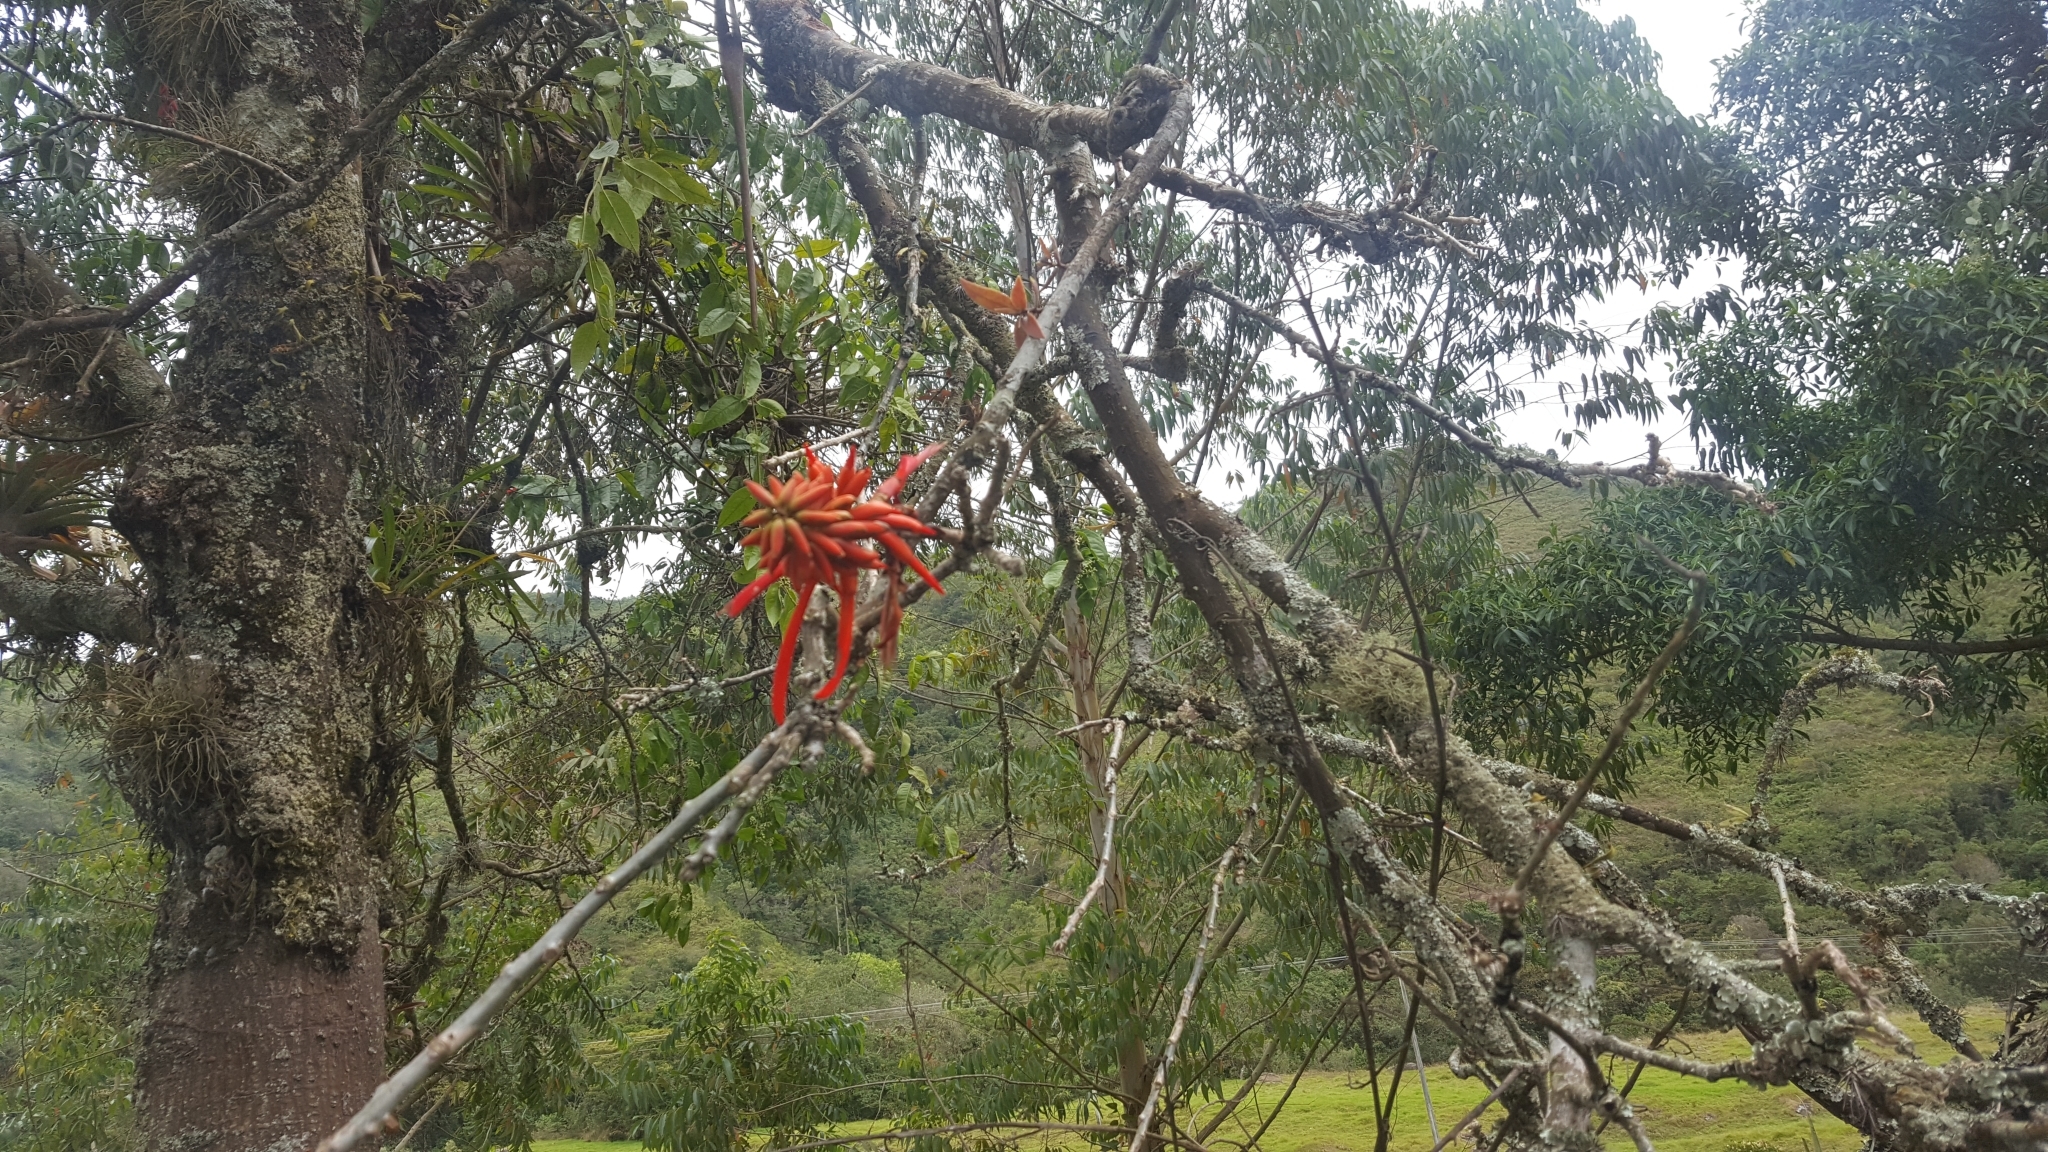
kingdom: Plantae
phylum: Tracheophyta
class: Magnoliopsida
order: Fabales
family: Fabaceae
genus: Erythrina
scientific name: Erythrina americana
